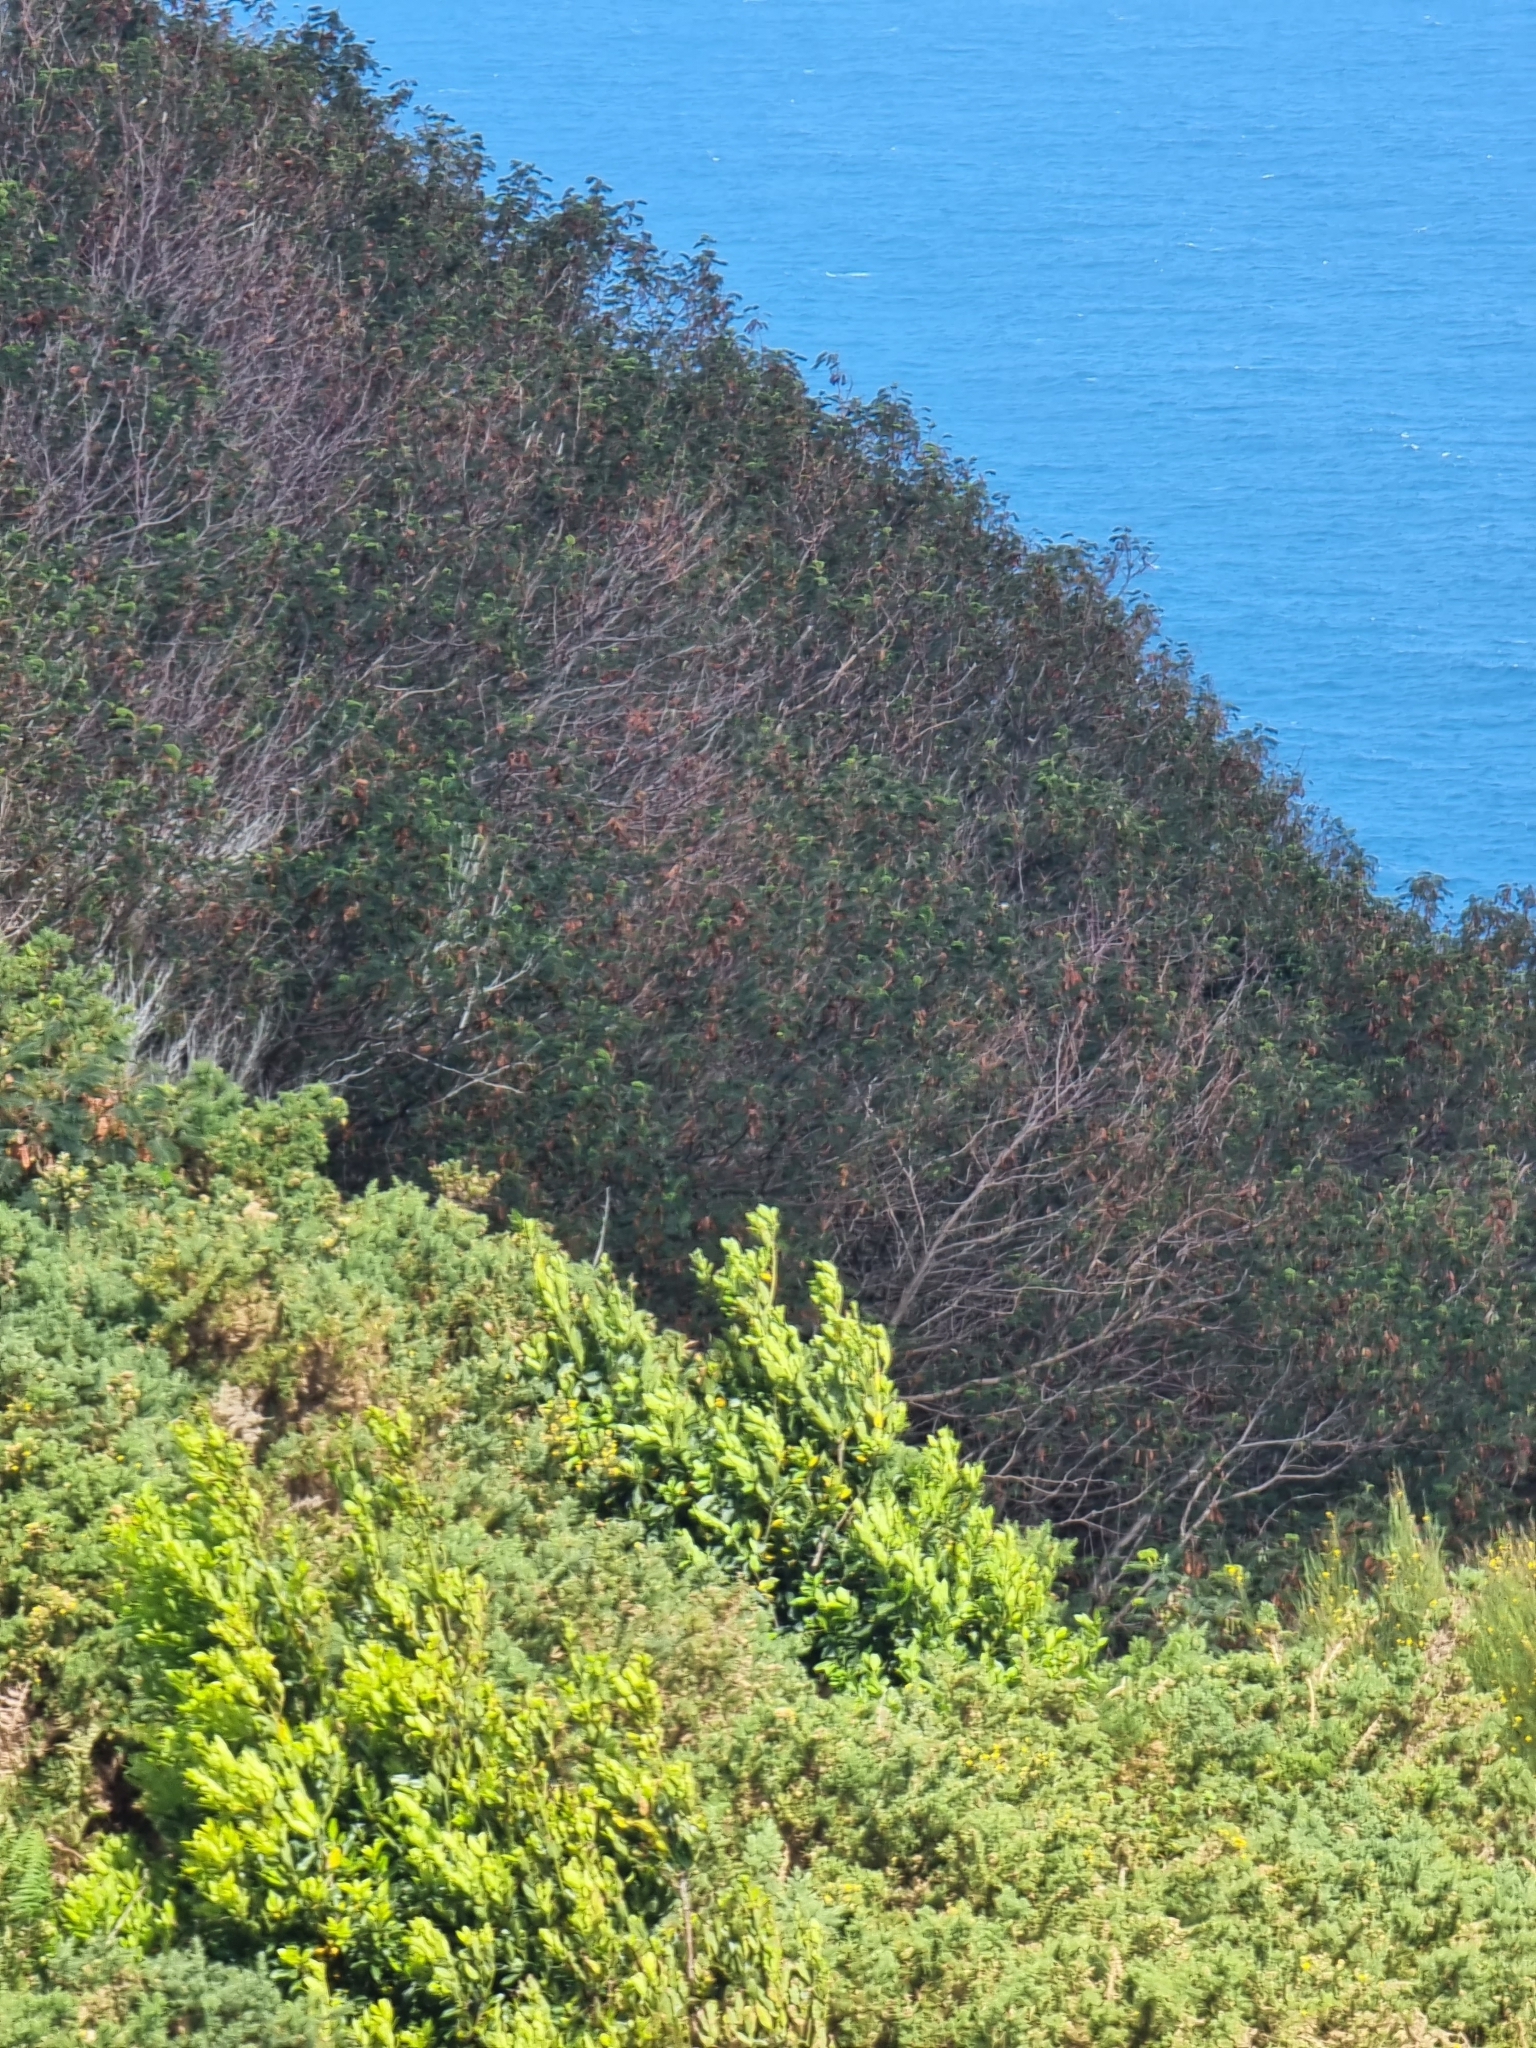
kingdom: Plantae
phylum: Tracheophyta
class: Magnoliopsida
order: Fabales
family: Fabaceae
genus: Leucaena
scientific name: Leucaena leucocephala
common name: White leadtree
